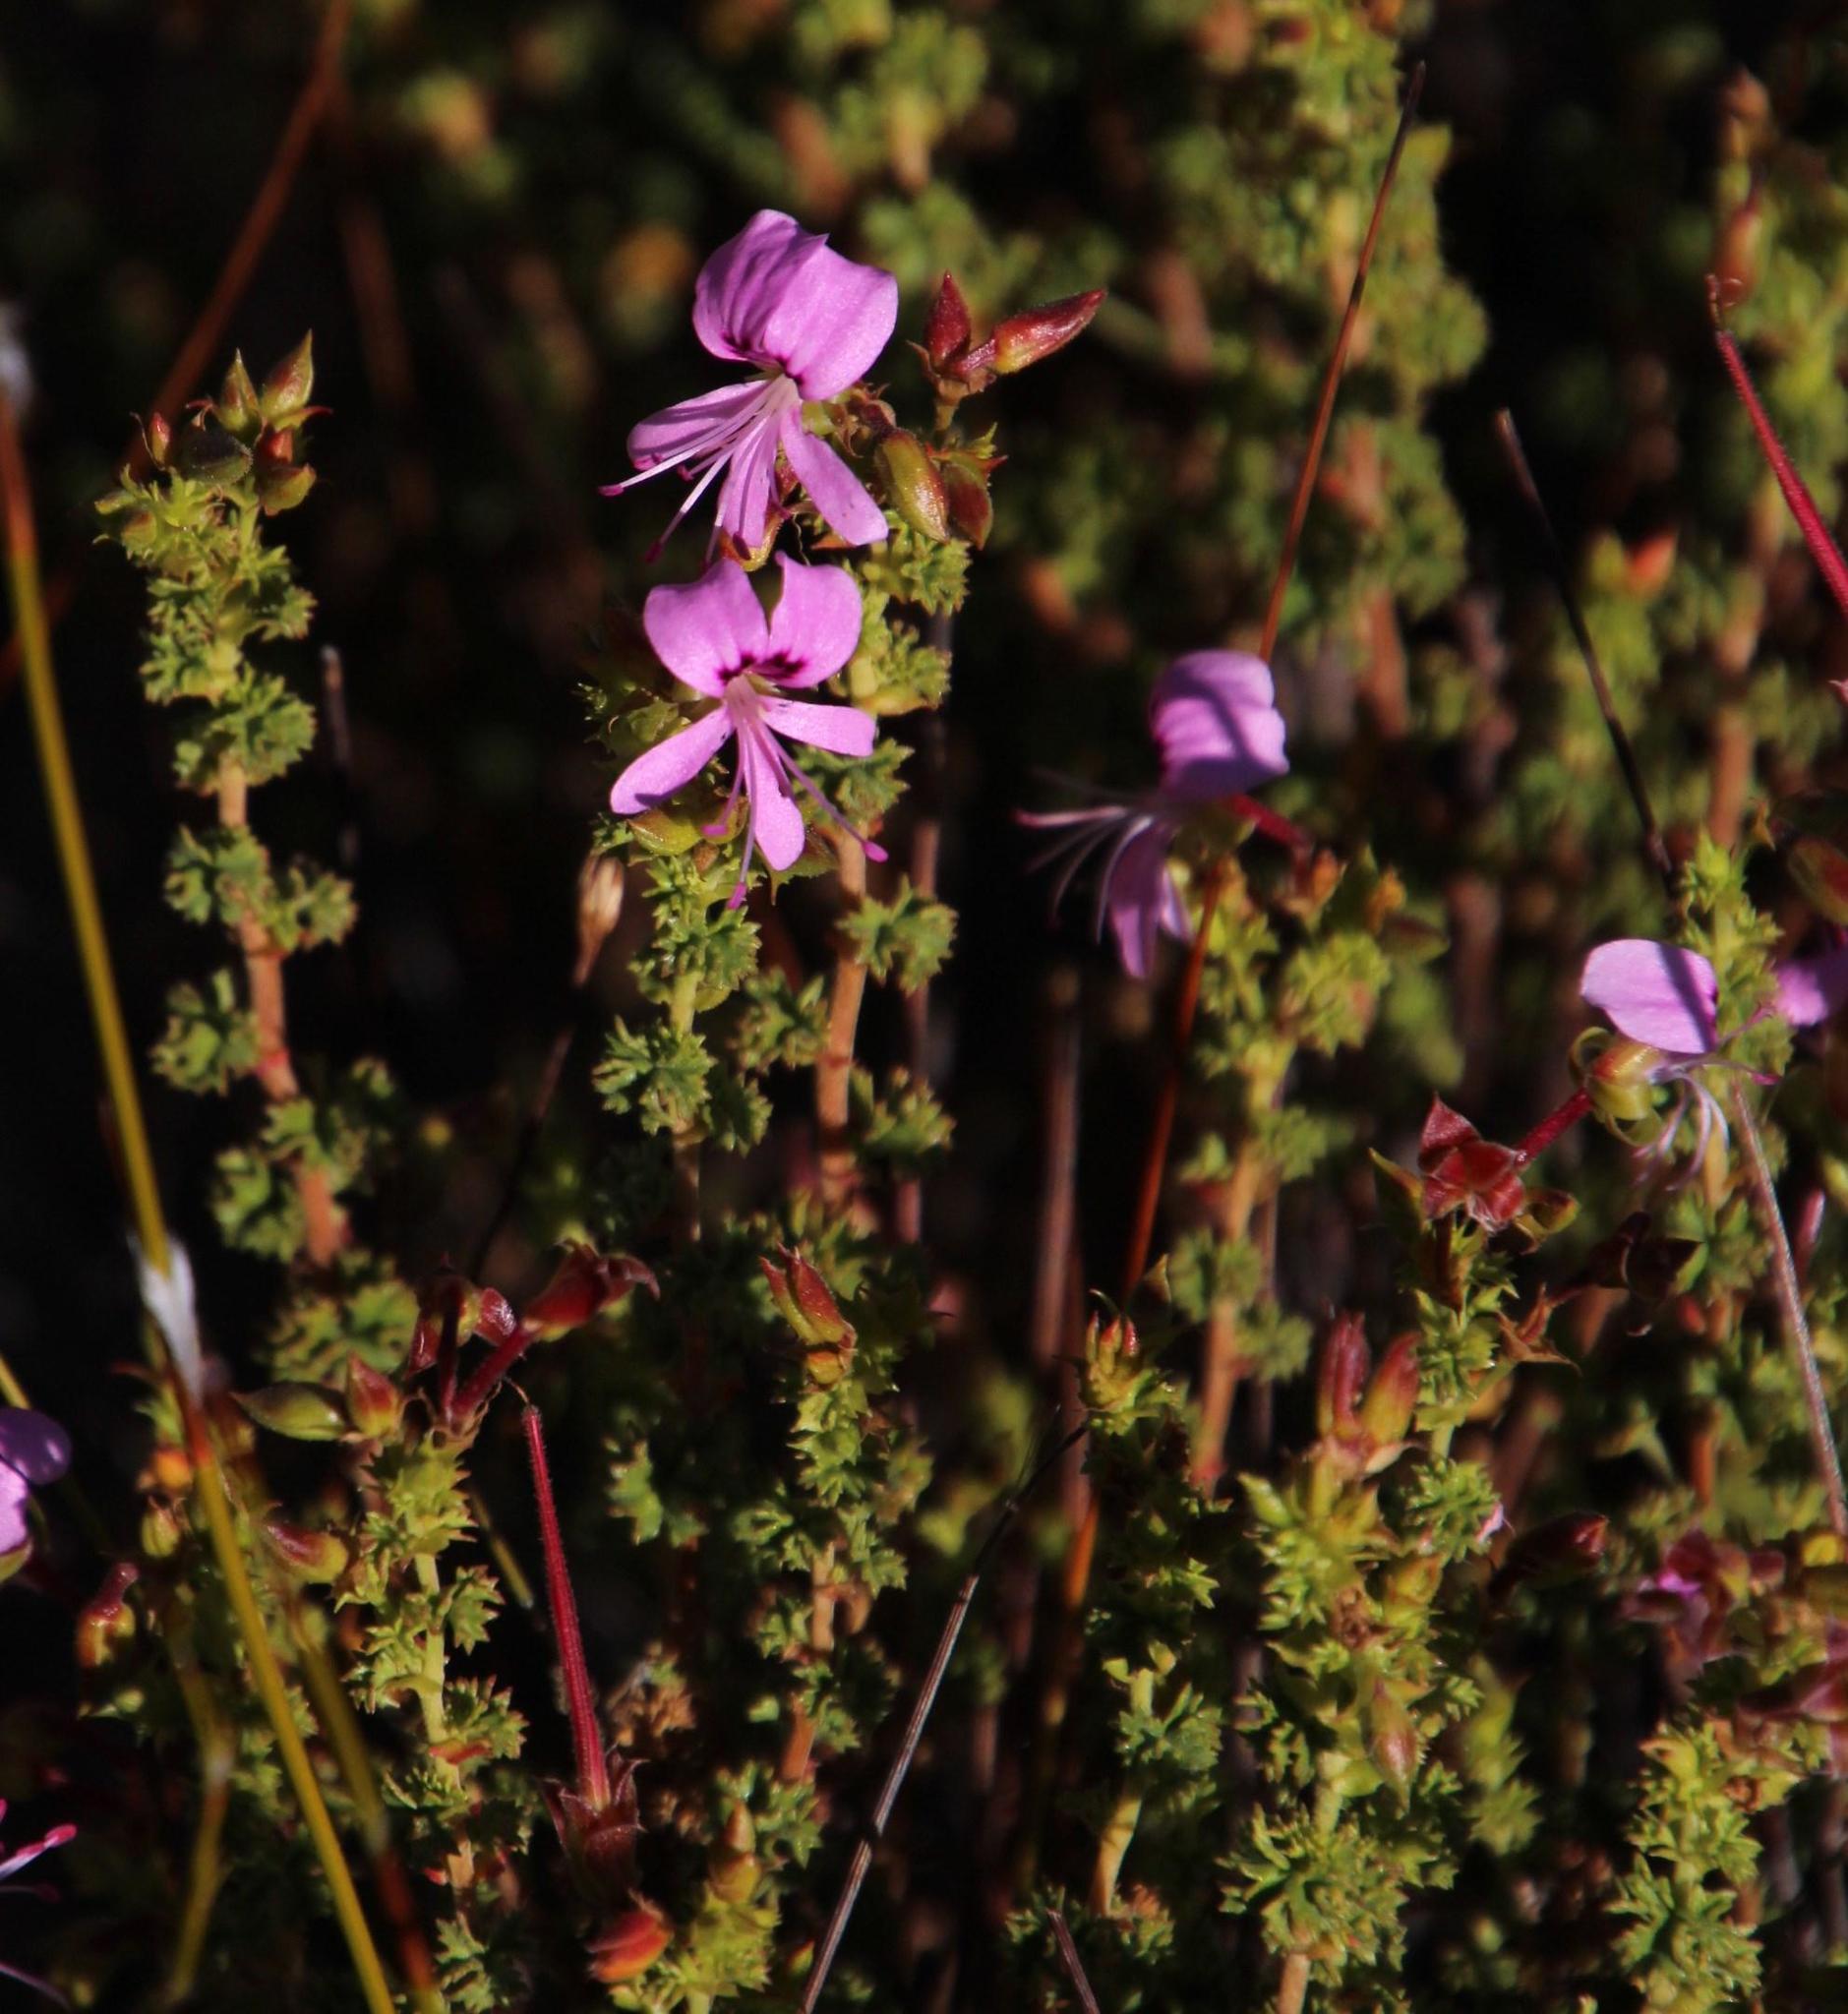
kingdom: Plantae
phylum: Tracheophyta
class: Magnoliopsida
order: Geraniales
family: Geraniaceae
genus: Pelargonium
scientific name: Pelargonium englerianum
